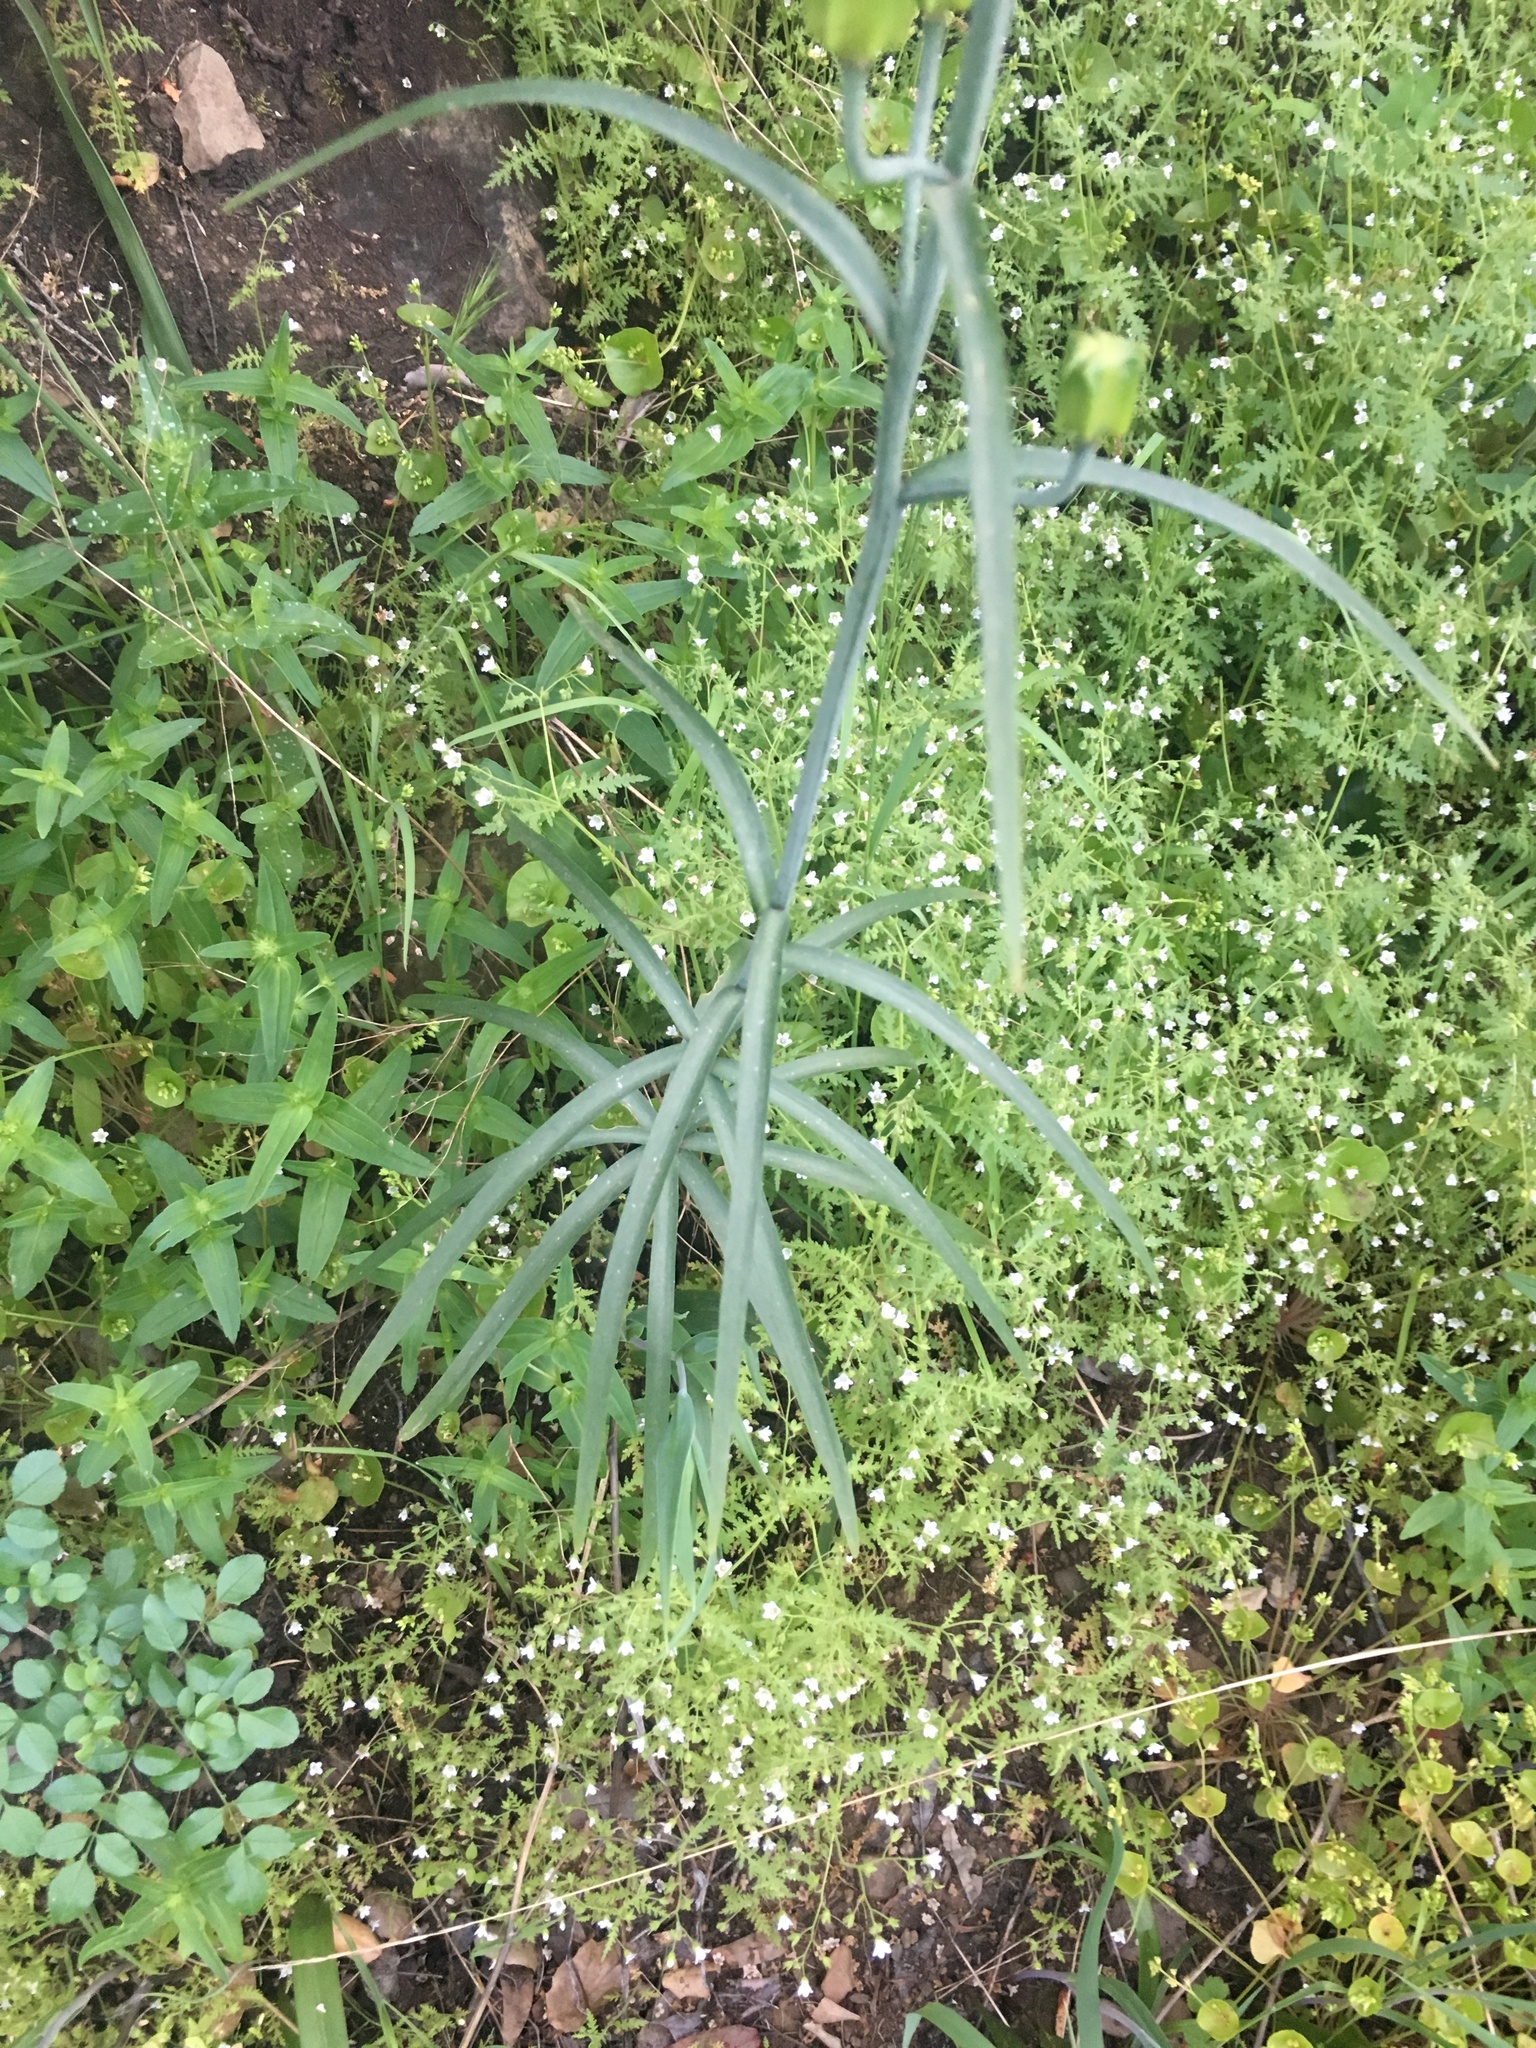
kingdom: Plantae
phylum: Tracheophyta
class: Liliopsida
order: Liliales
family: Liliaceae
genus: Fritillaria
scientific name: Fritillaria ojaiensis
